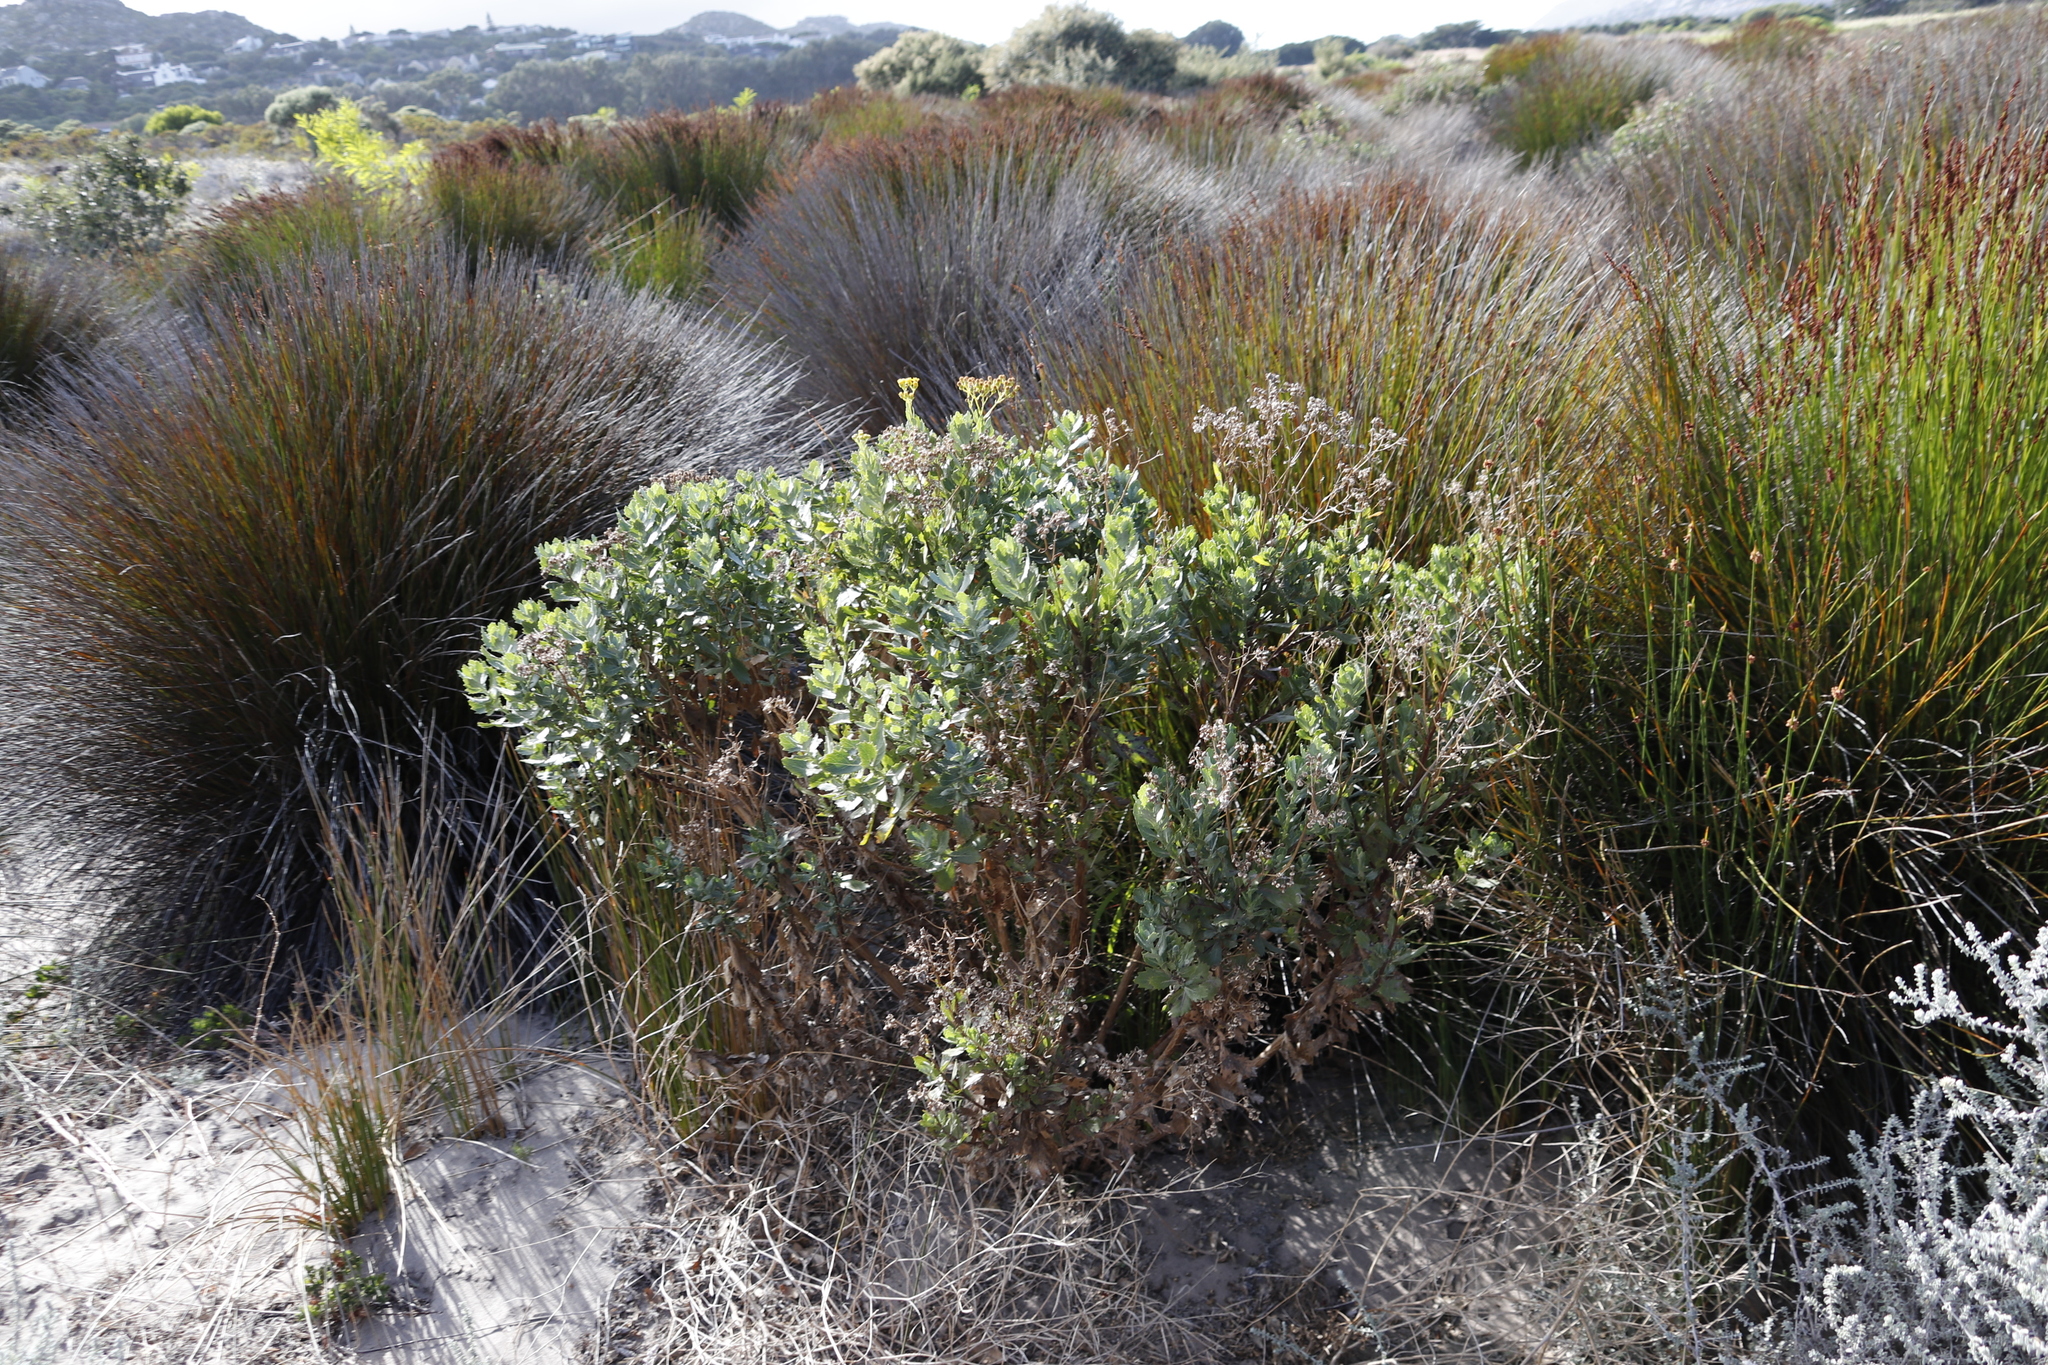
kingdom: Plantae
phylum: Tracheophyta
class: Magnoliopsida
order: Asterales
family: Asteraceae
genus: Osteospermum
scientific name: Osteospermum moniliferum
